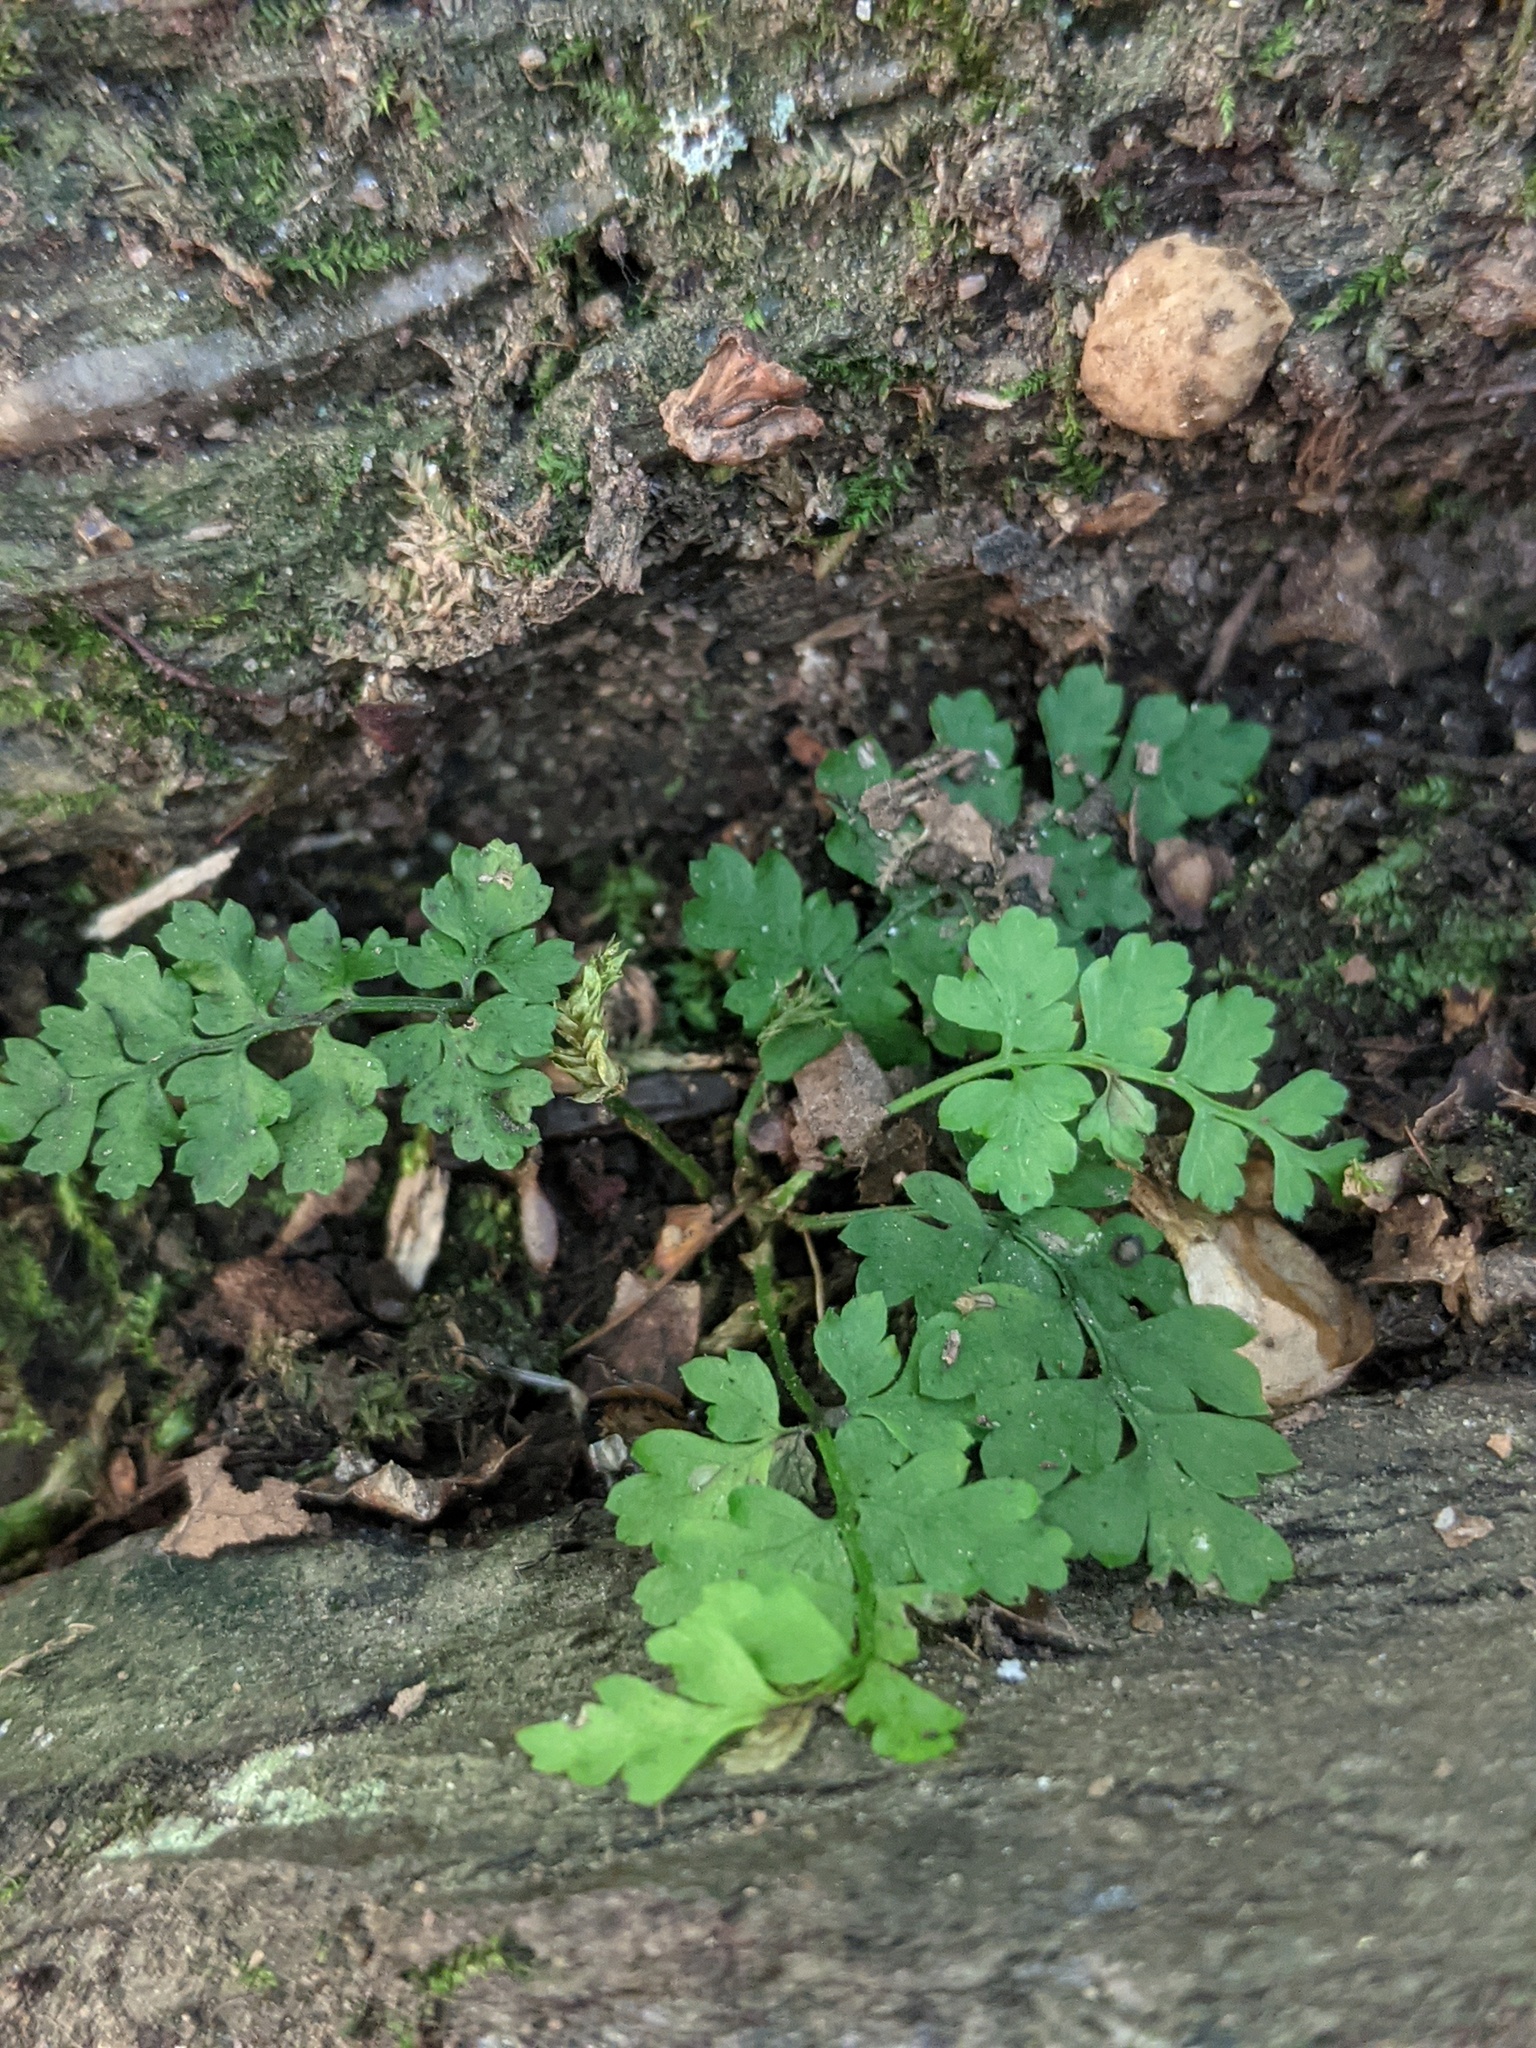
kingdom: Plantae
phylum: Tracheophyta
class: Polypodiopsida
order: Polypodiales
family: Dryopteridaceae
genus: Dryopteris
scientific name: Dryopteris intermedia
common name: Evergreen wood fern
